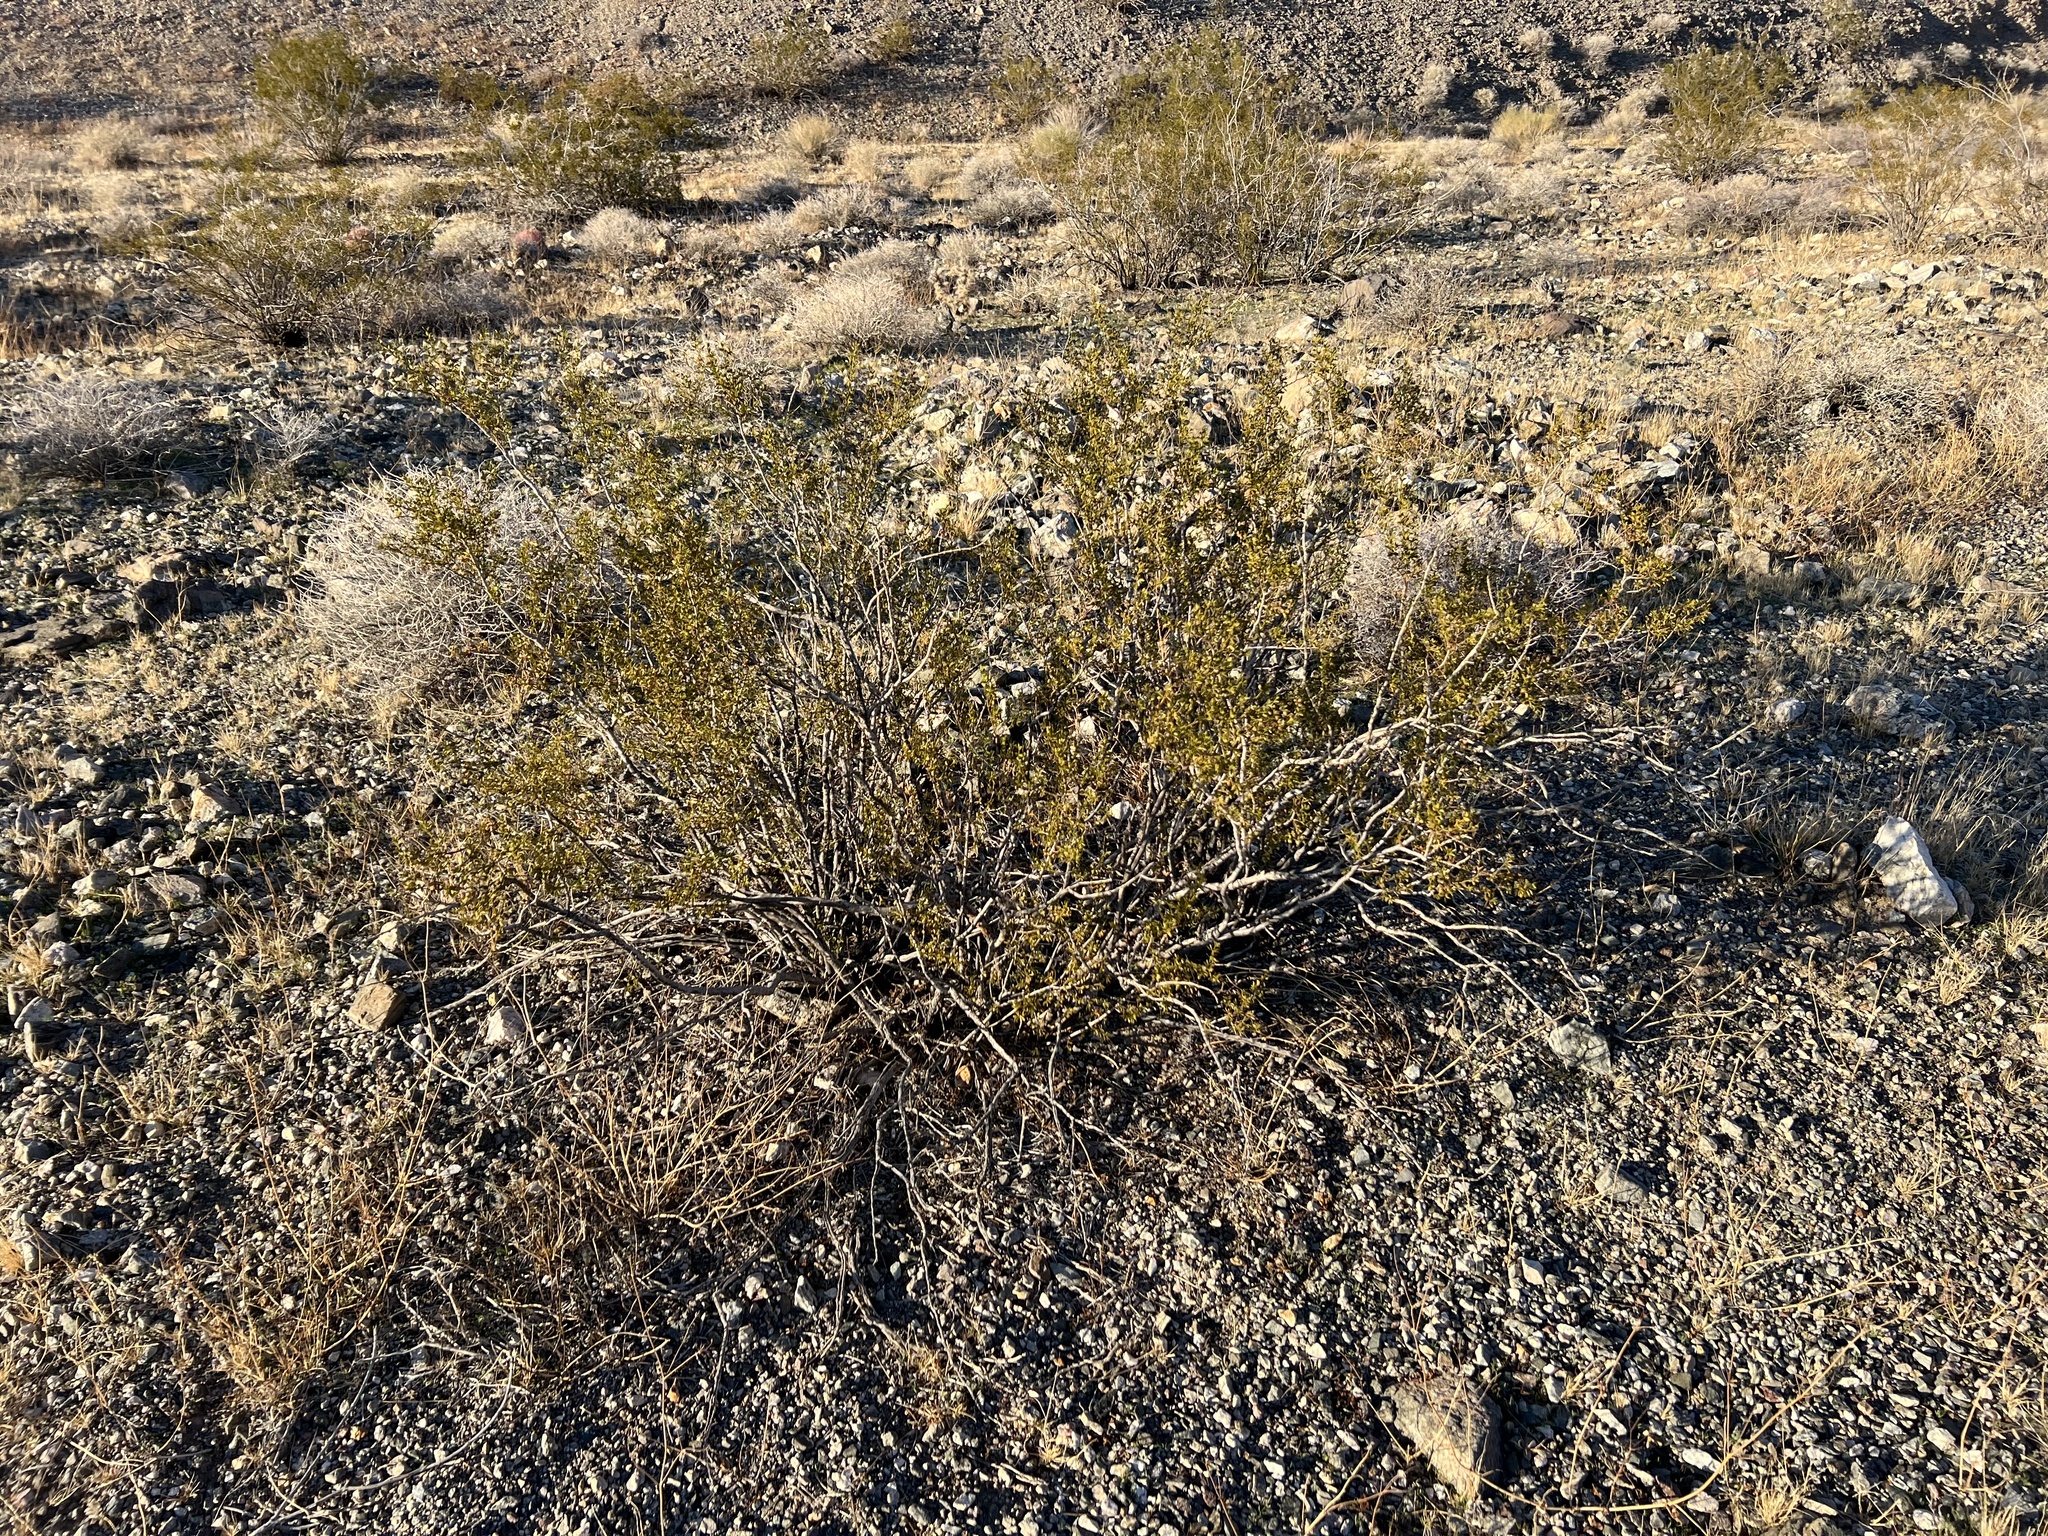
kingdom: Plantae
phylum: Tracheophyta
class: Magnoliopsida
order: Zygophyllales
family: Zygophyllaceae
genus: Larrea
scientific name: Larrea tridentata
